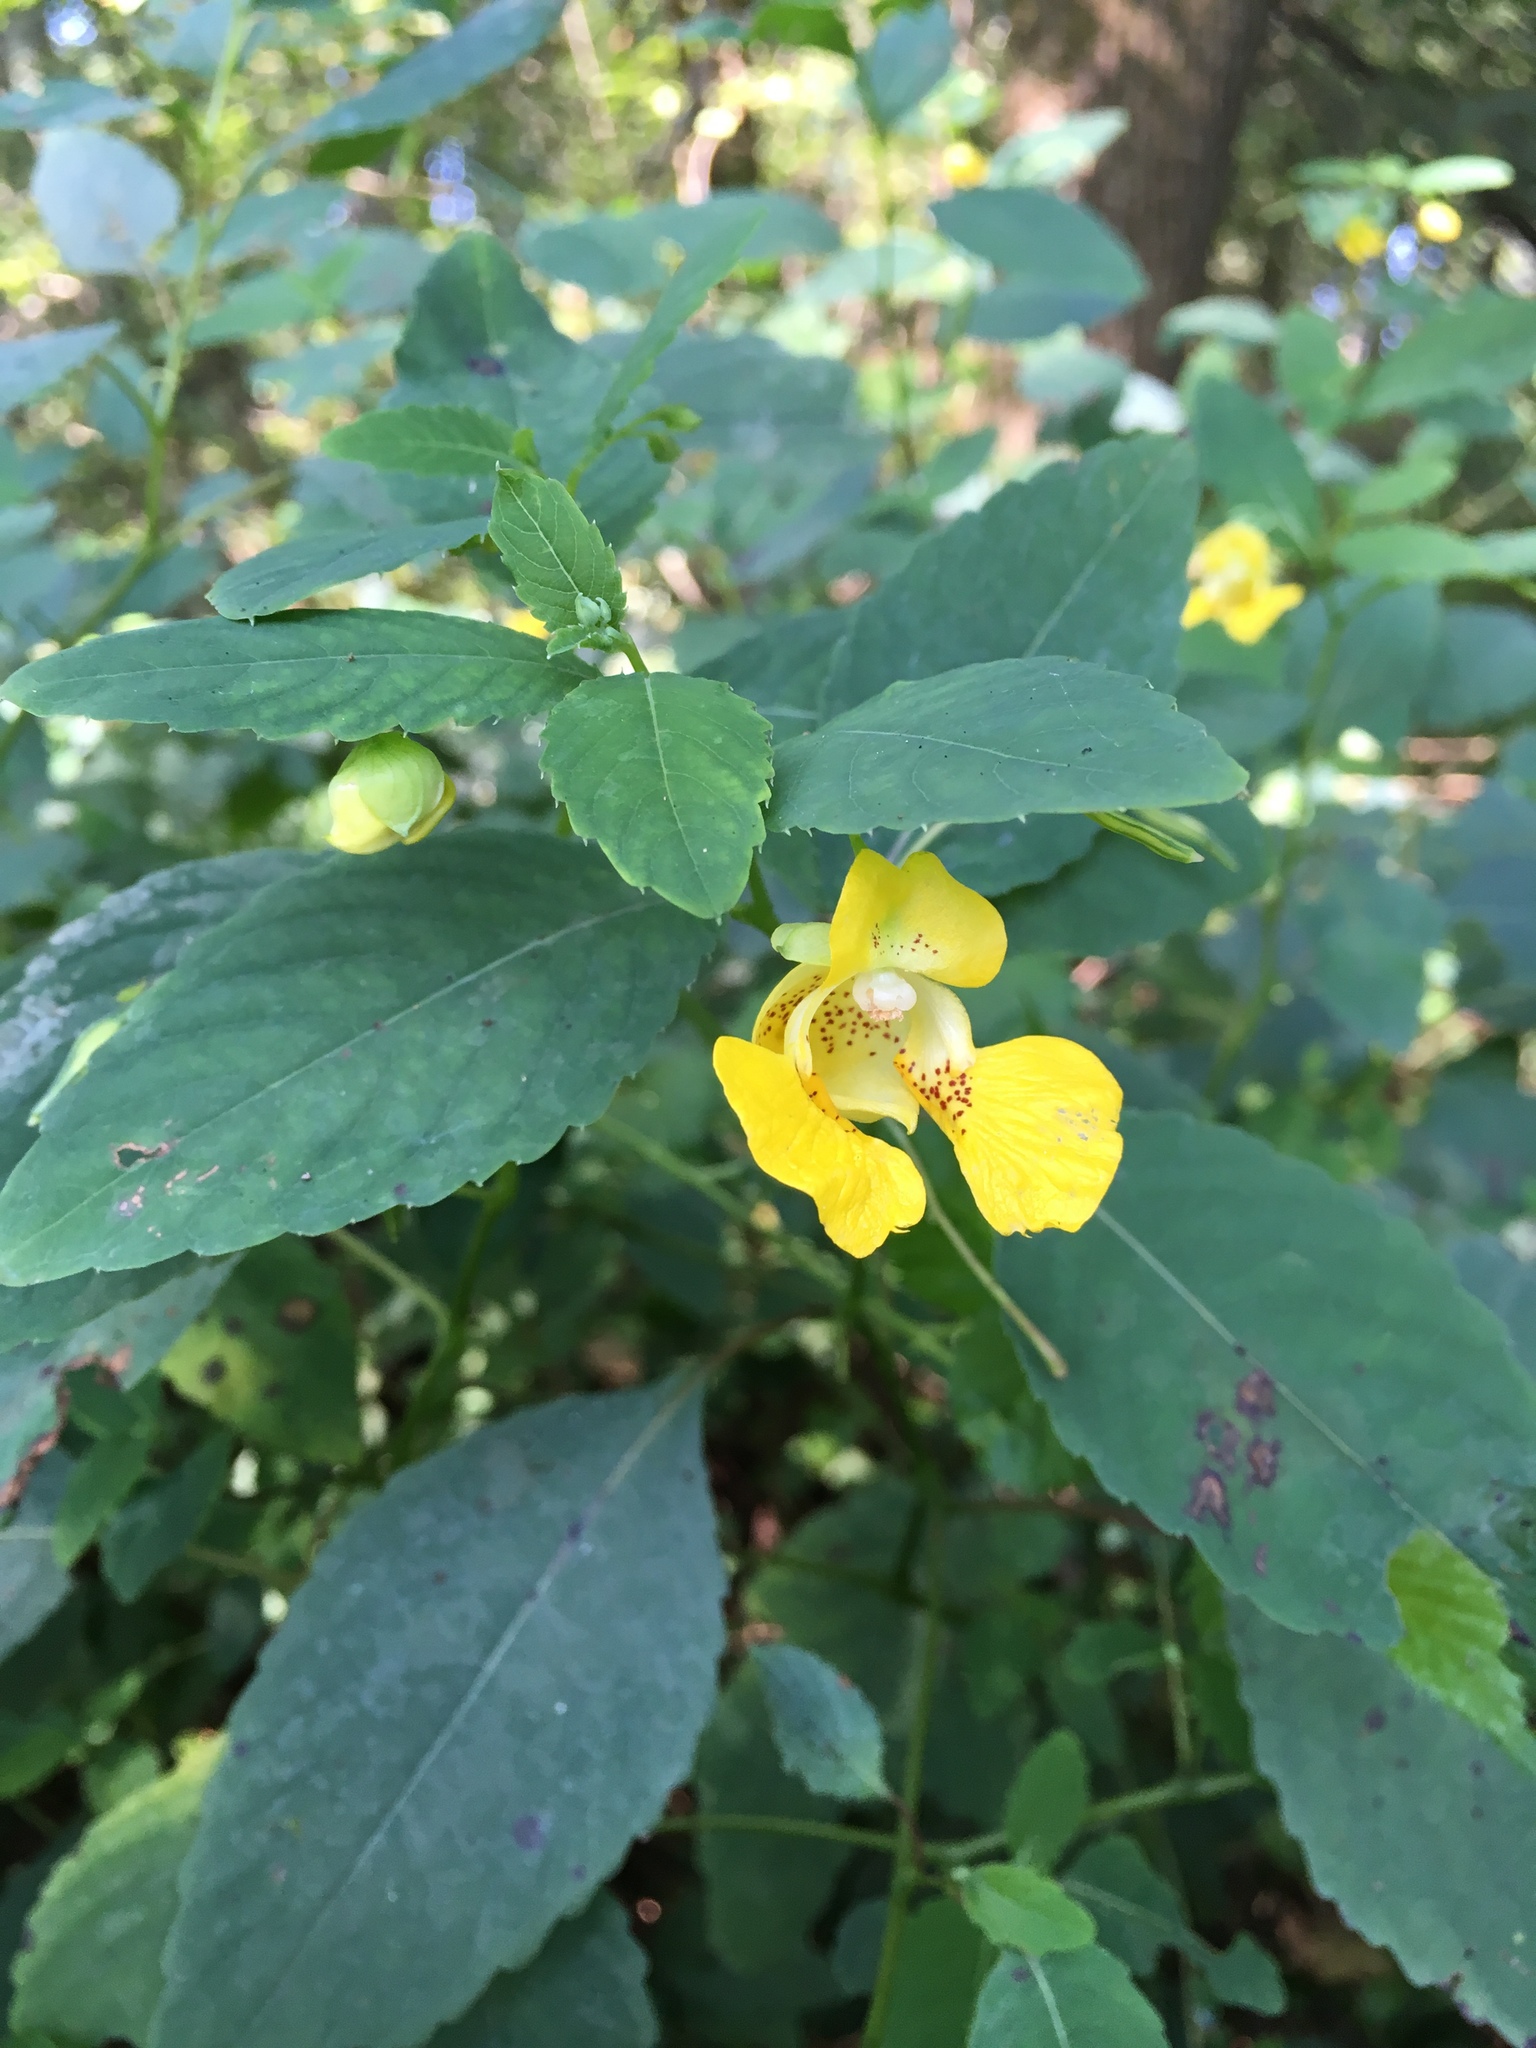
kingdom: Plantae
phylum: Tracheophyta
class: Magnoliopsida
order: Ericales
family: Balsaminaceae
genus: Impatiens
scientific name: Impatiens pallida
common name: Pale snapweed
